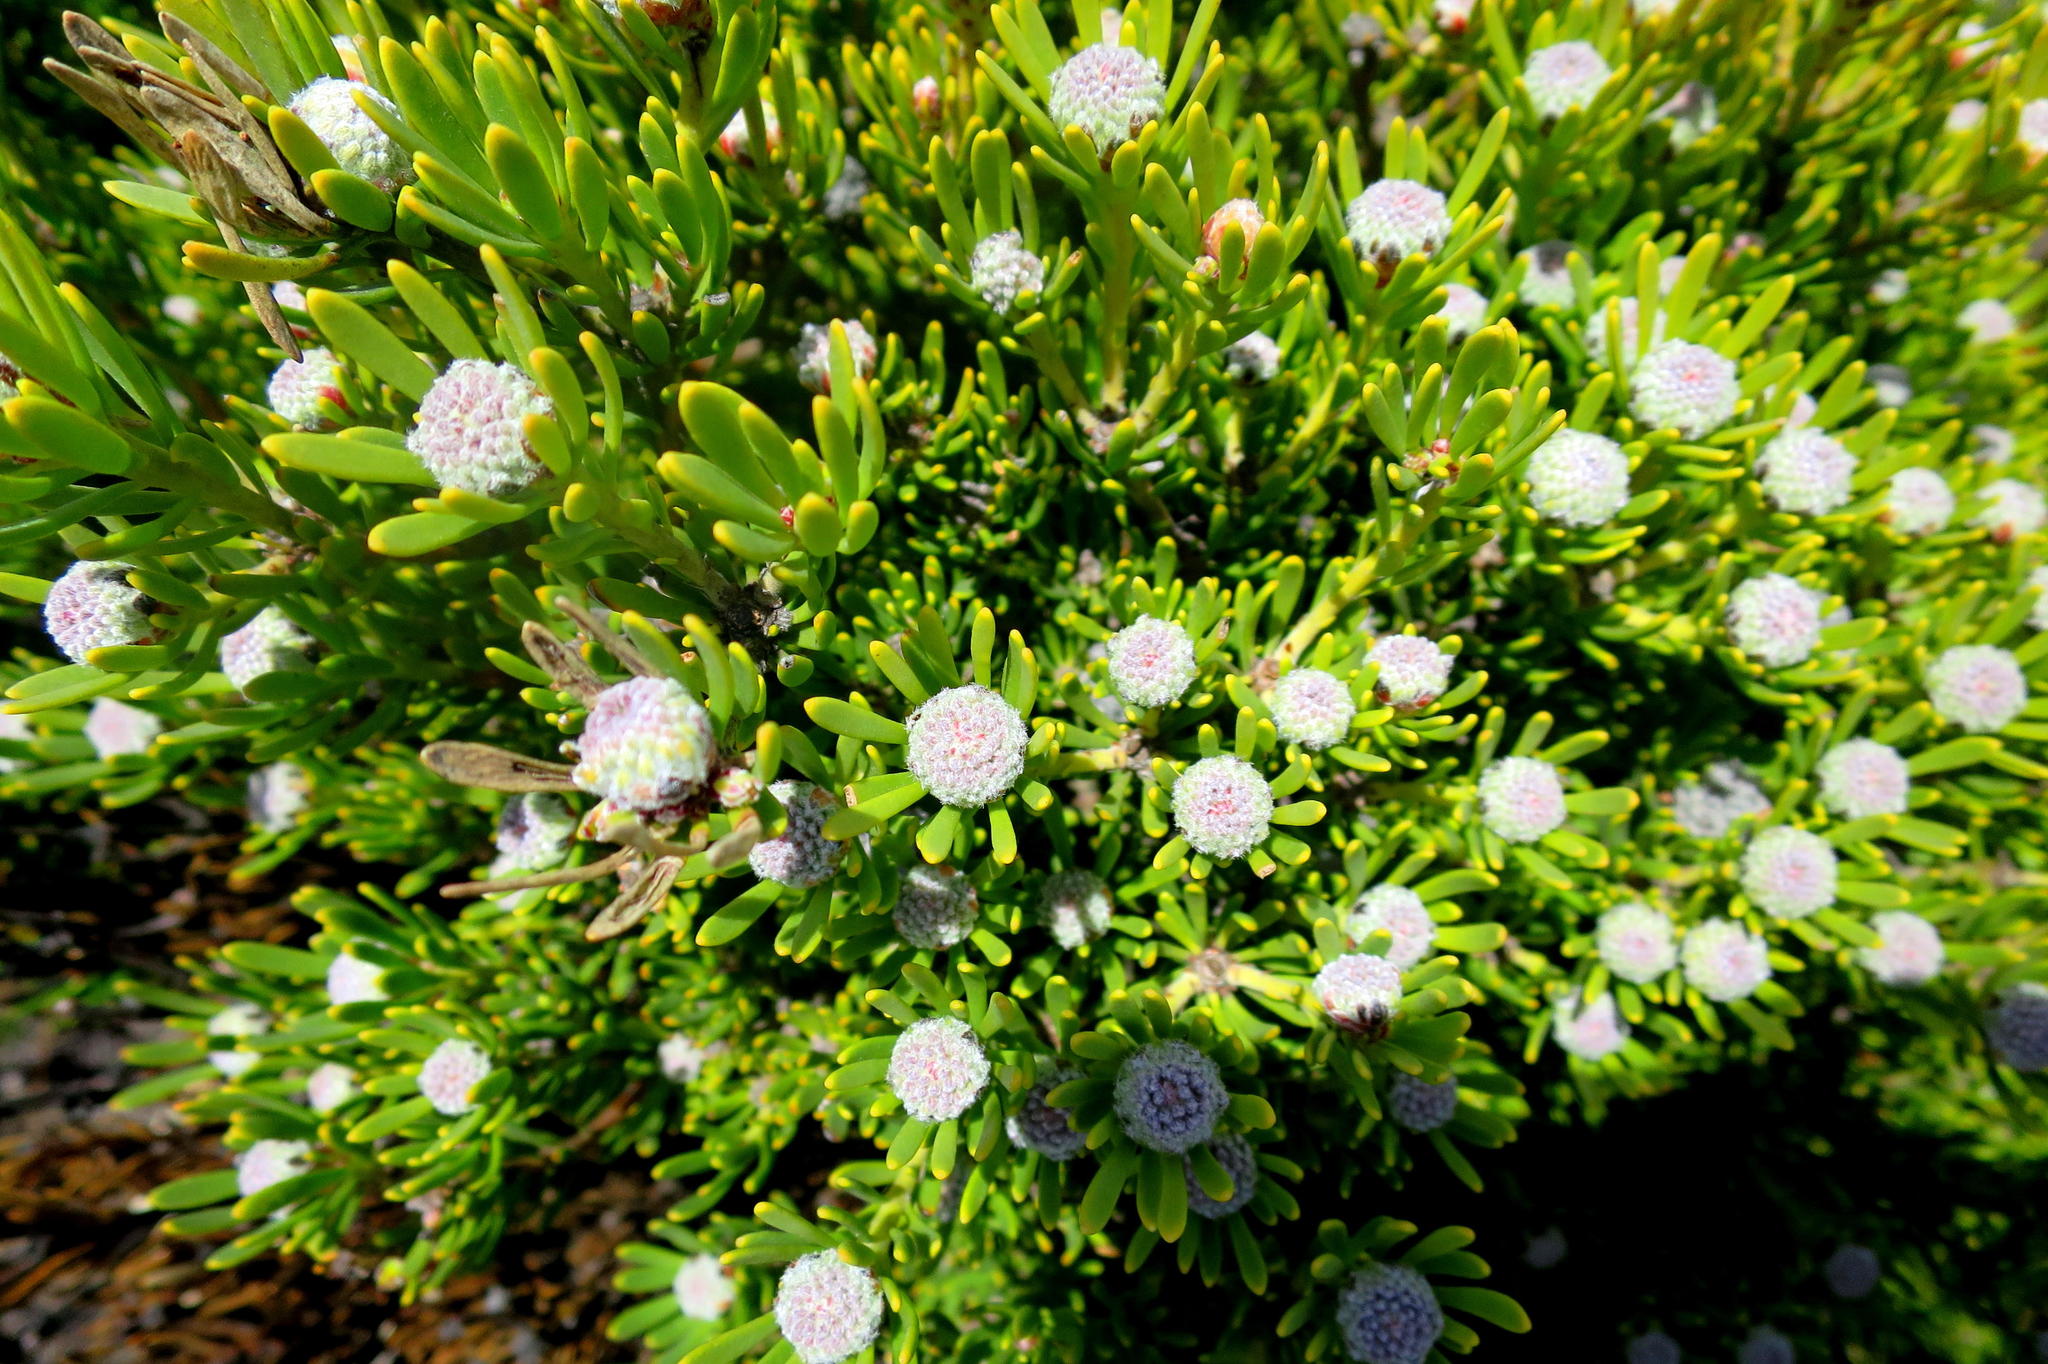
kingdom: Plantae
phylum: Tracheophyta
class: Magnoliopsida
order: Proteales
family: Proteaceae
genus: Leucadendron
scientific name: Leucadendron dregei
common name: Summit conebush
